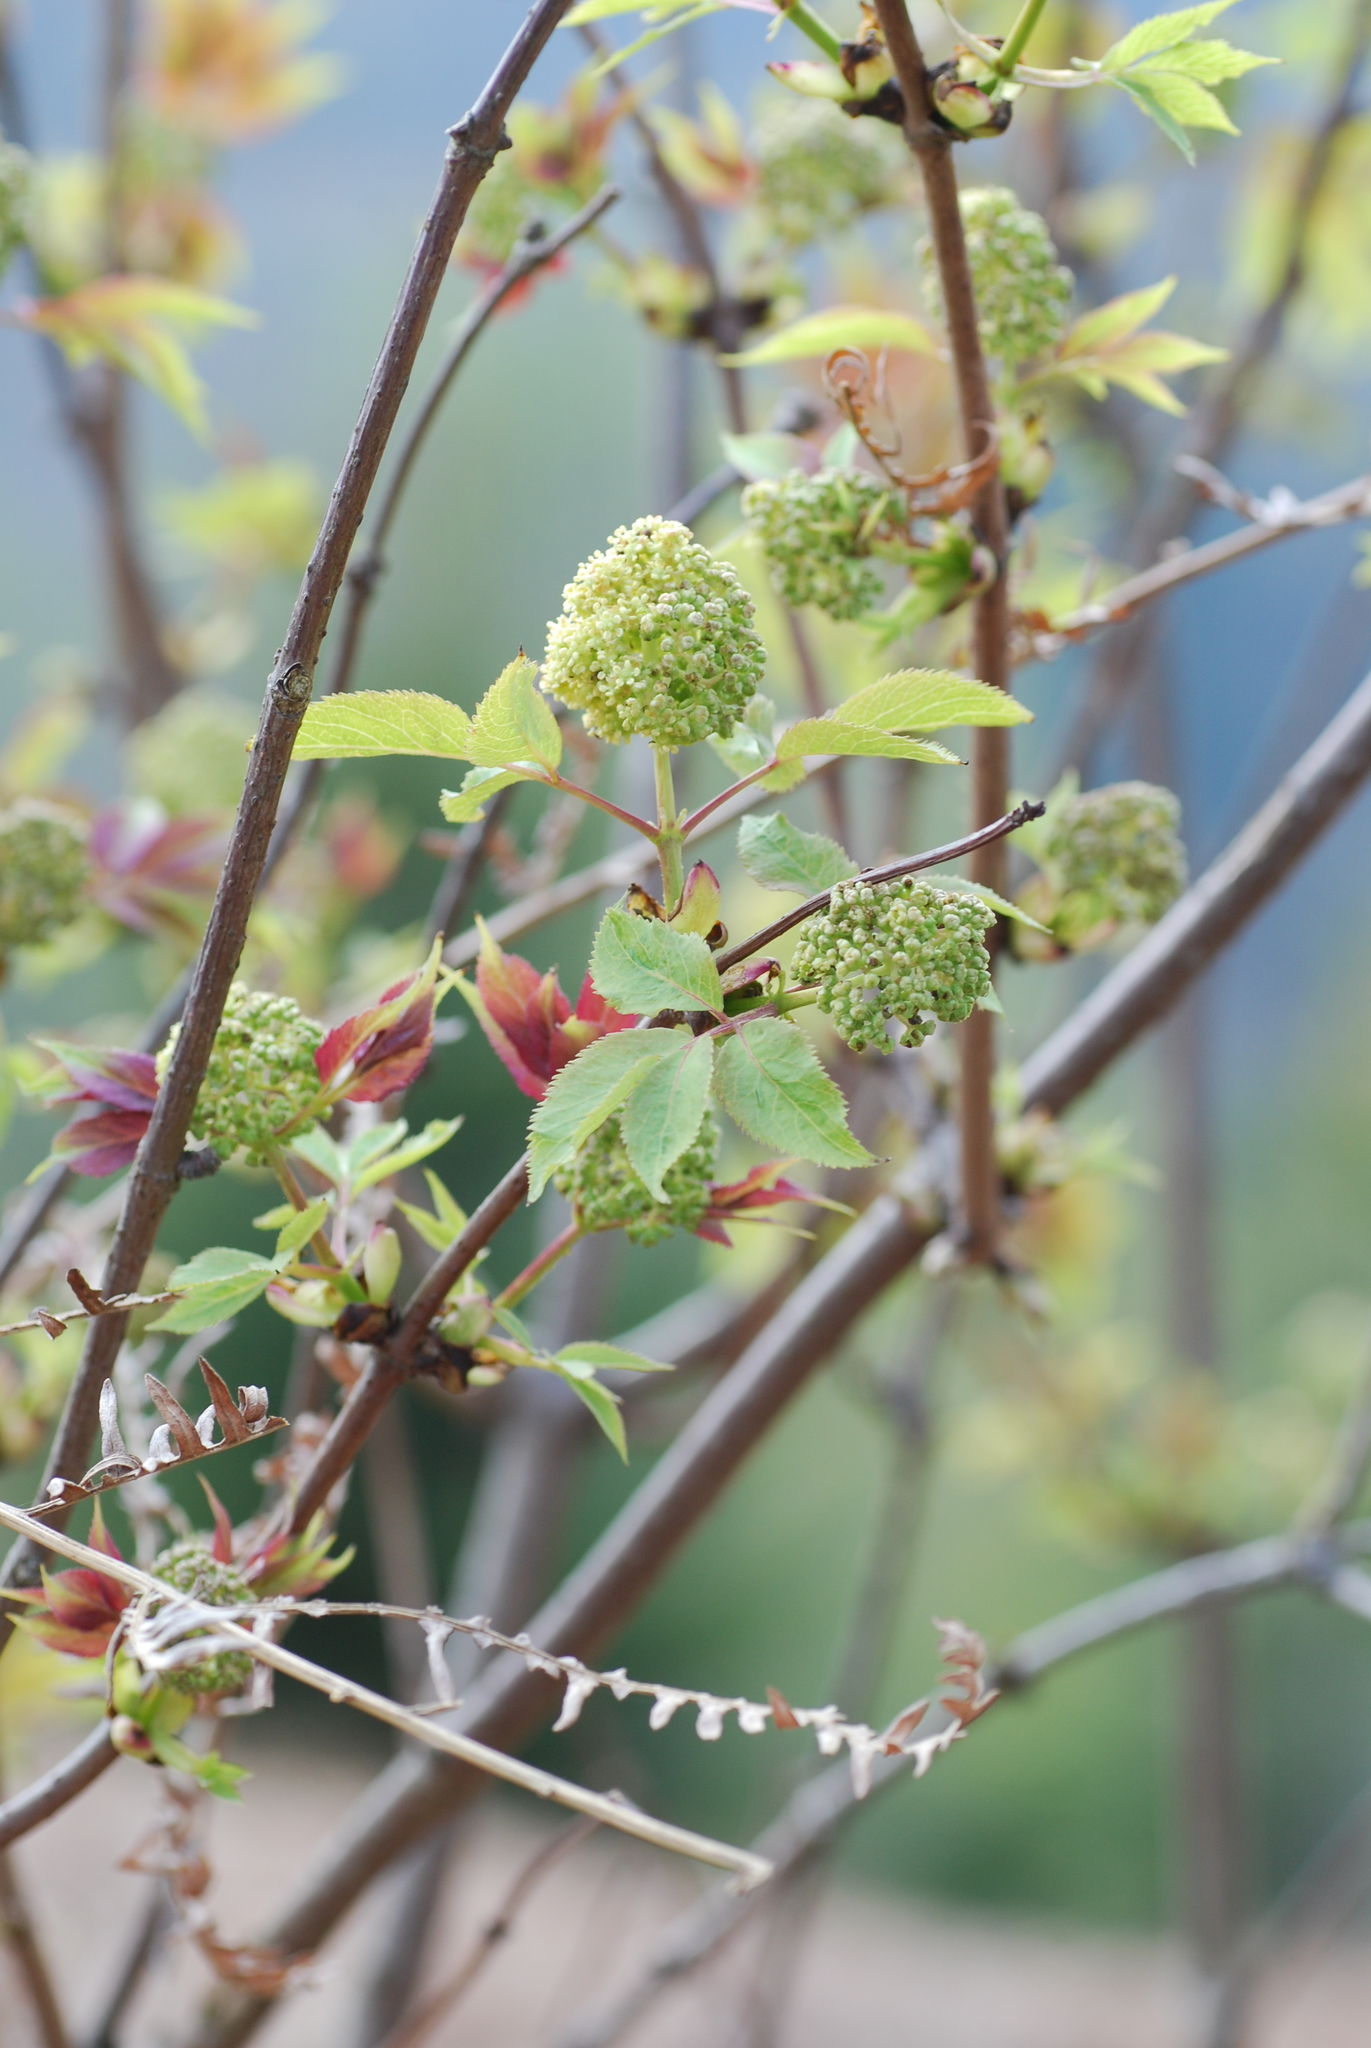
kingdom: Plantae
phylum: Tracheophyta
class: Magnoliopsida
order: Dipsacales
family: Viburnaceae
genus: Sambucus
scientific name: Sambucus racemosa
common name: Red-berried elder
